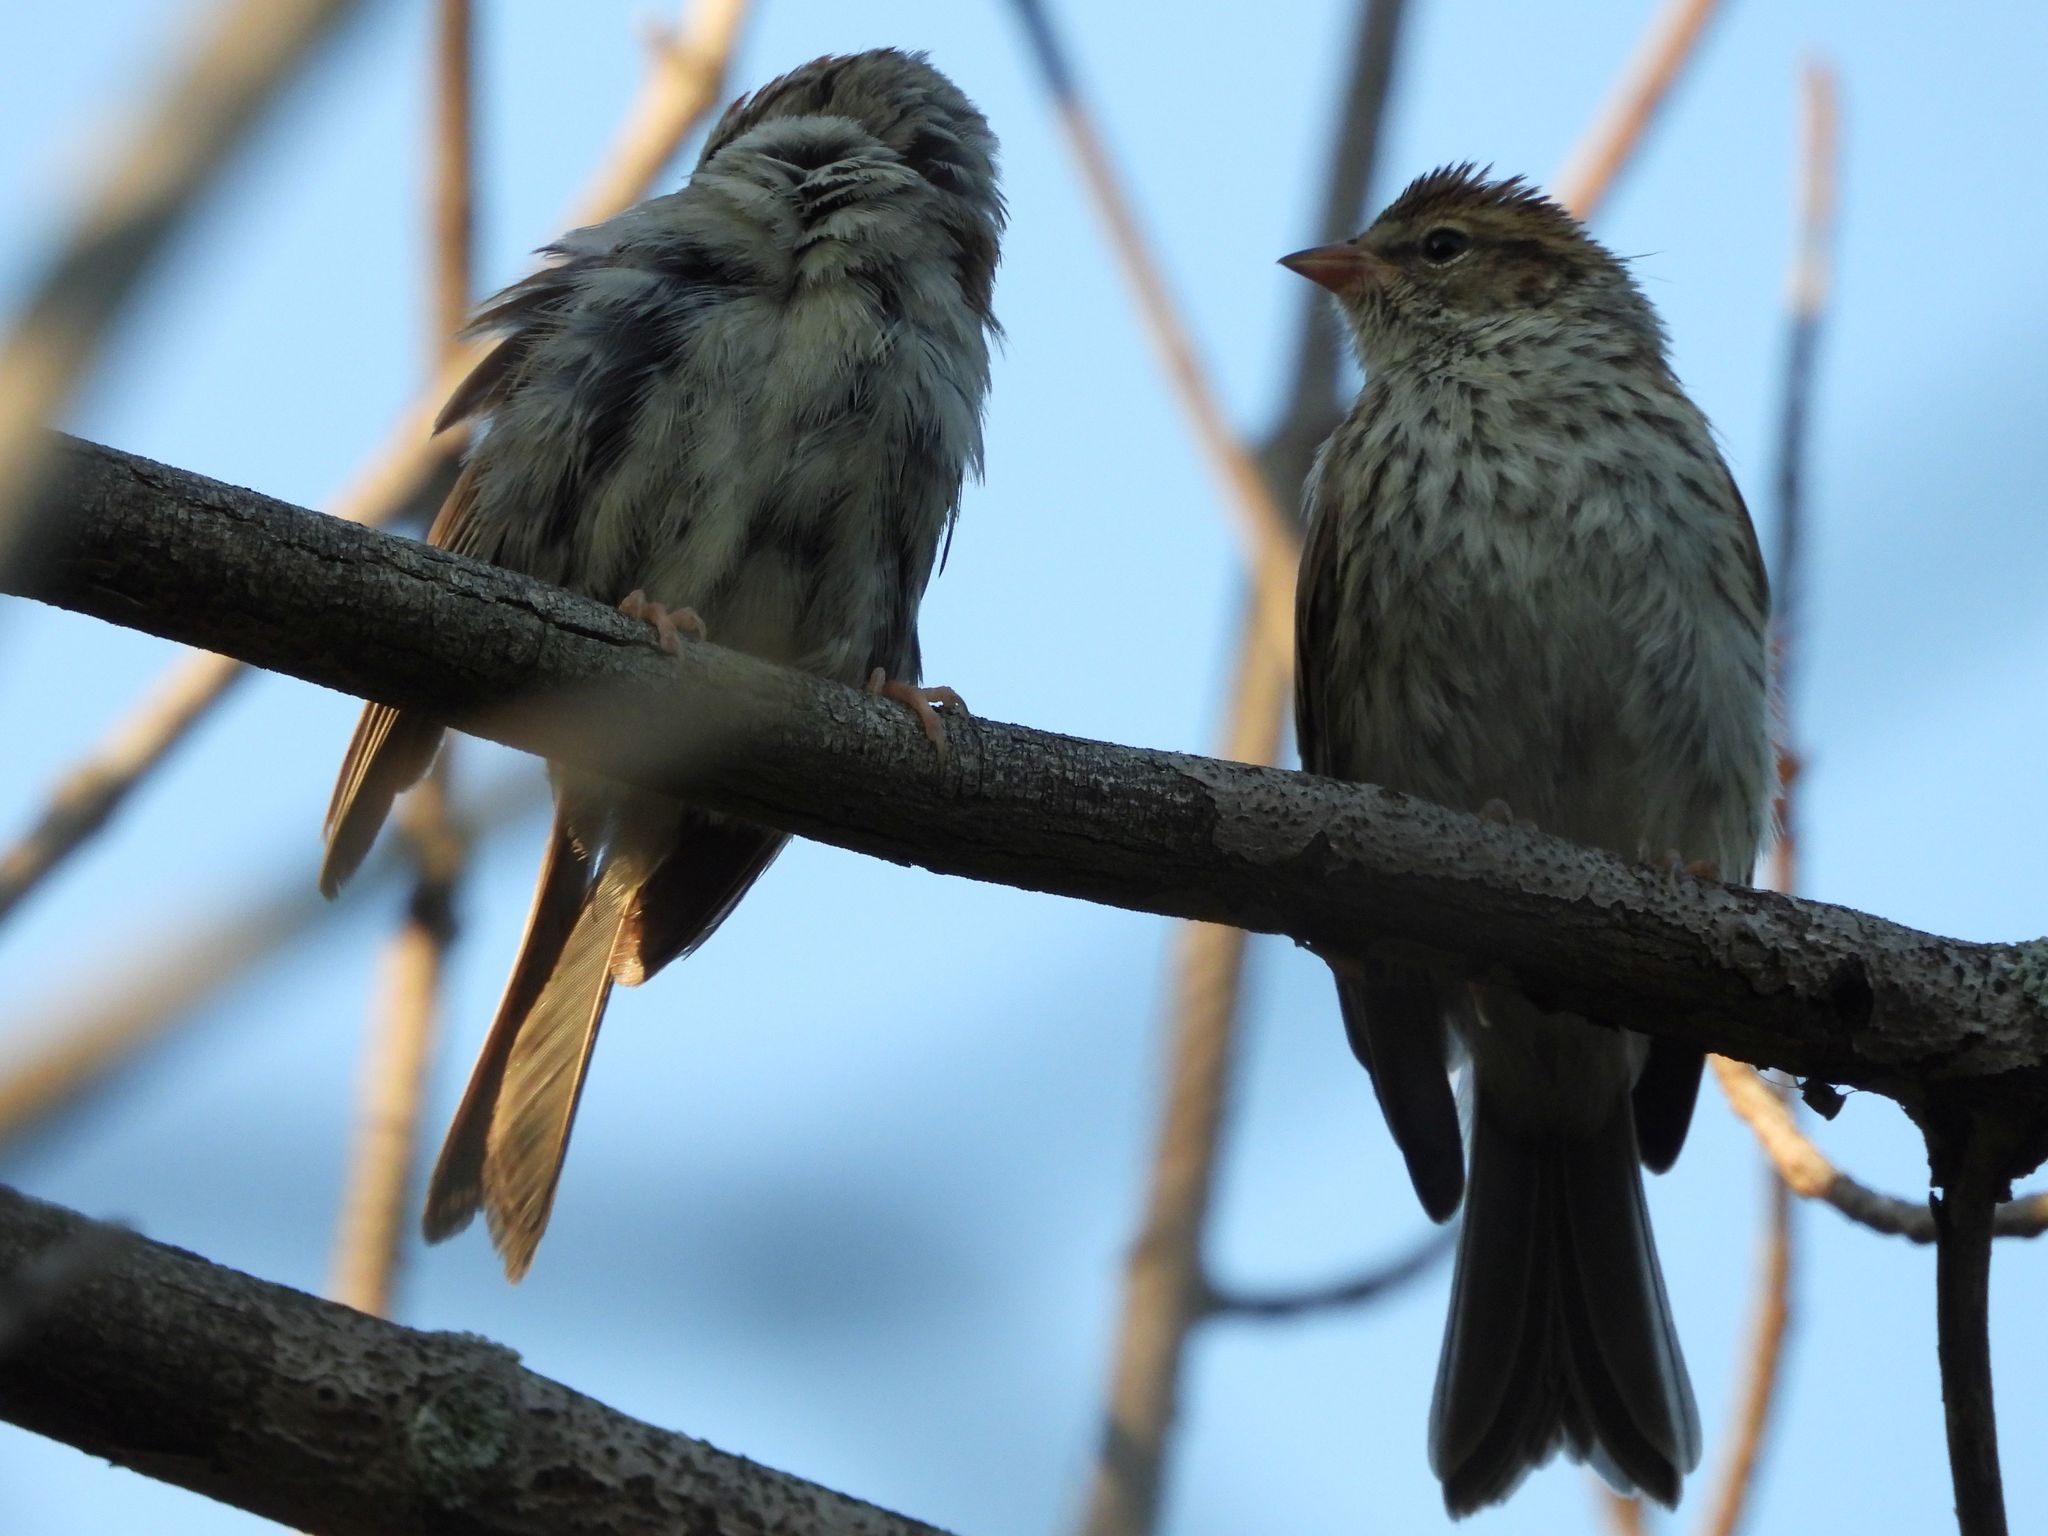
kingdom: Animalia
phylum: Chordata
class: Aves
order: Passeriformes
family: Passerellidae
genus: Spizella
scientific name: Spizella passerina
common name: Chipping sparrow
